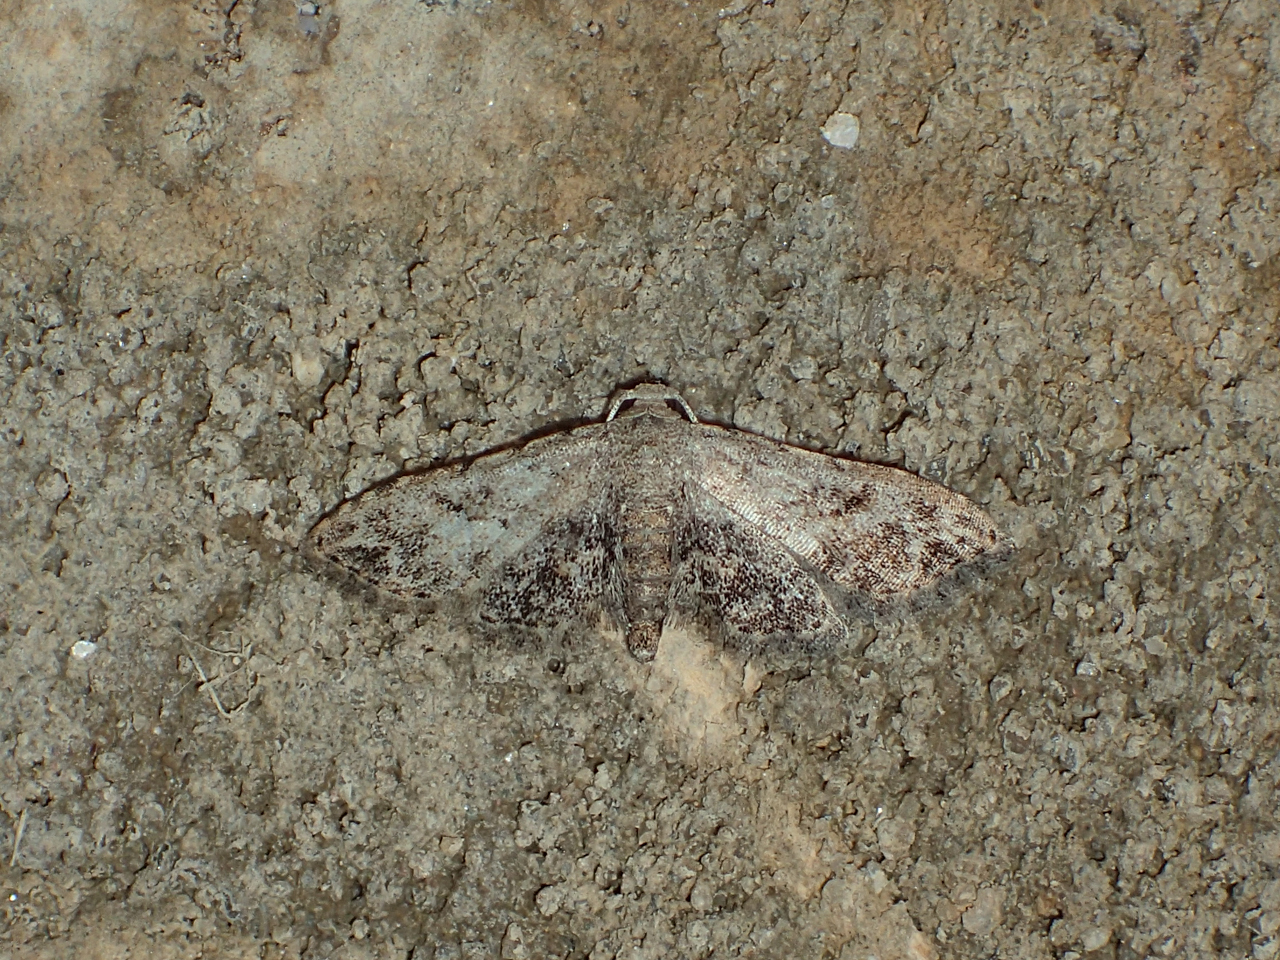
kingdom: Animalia
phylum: Arthropoda
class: Insecta
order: Lepidoptera
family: Erebidae
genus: Sigela
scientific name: Sigela brauneata
